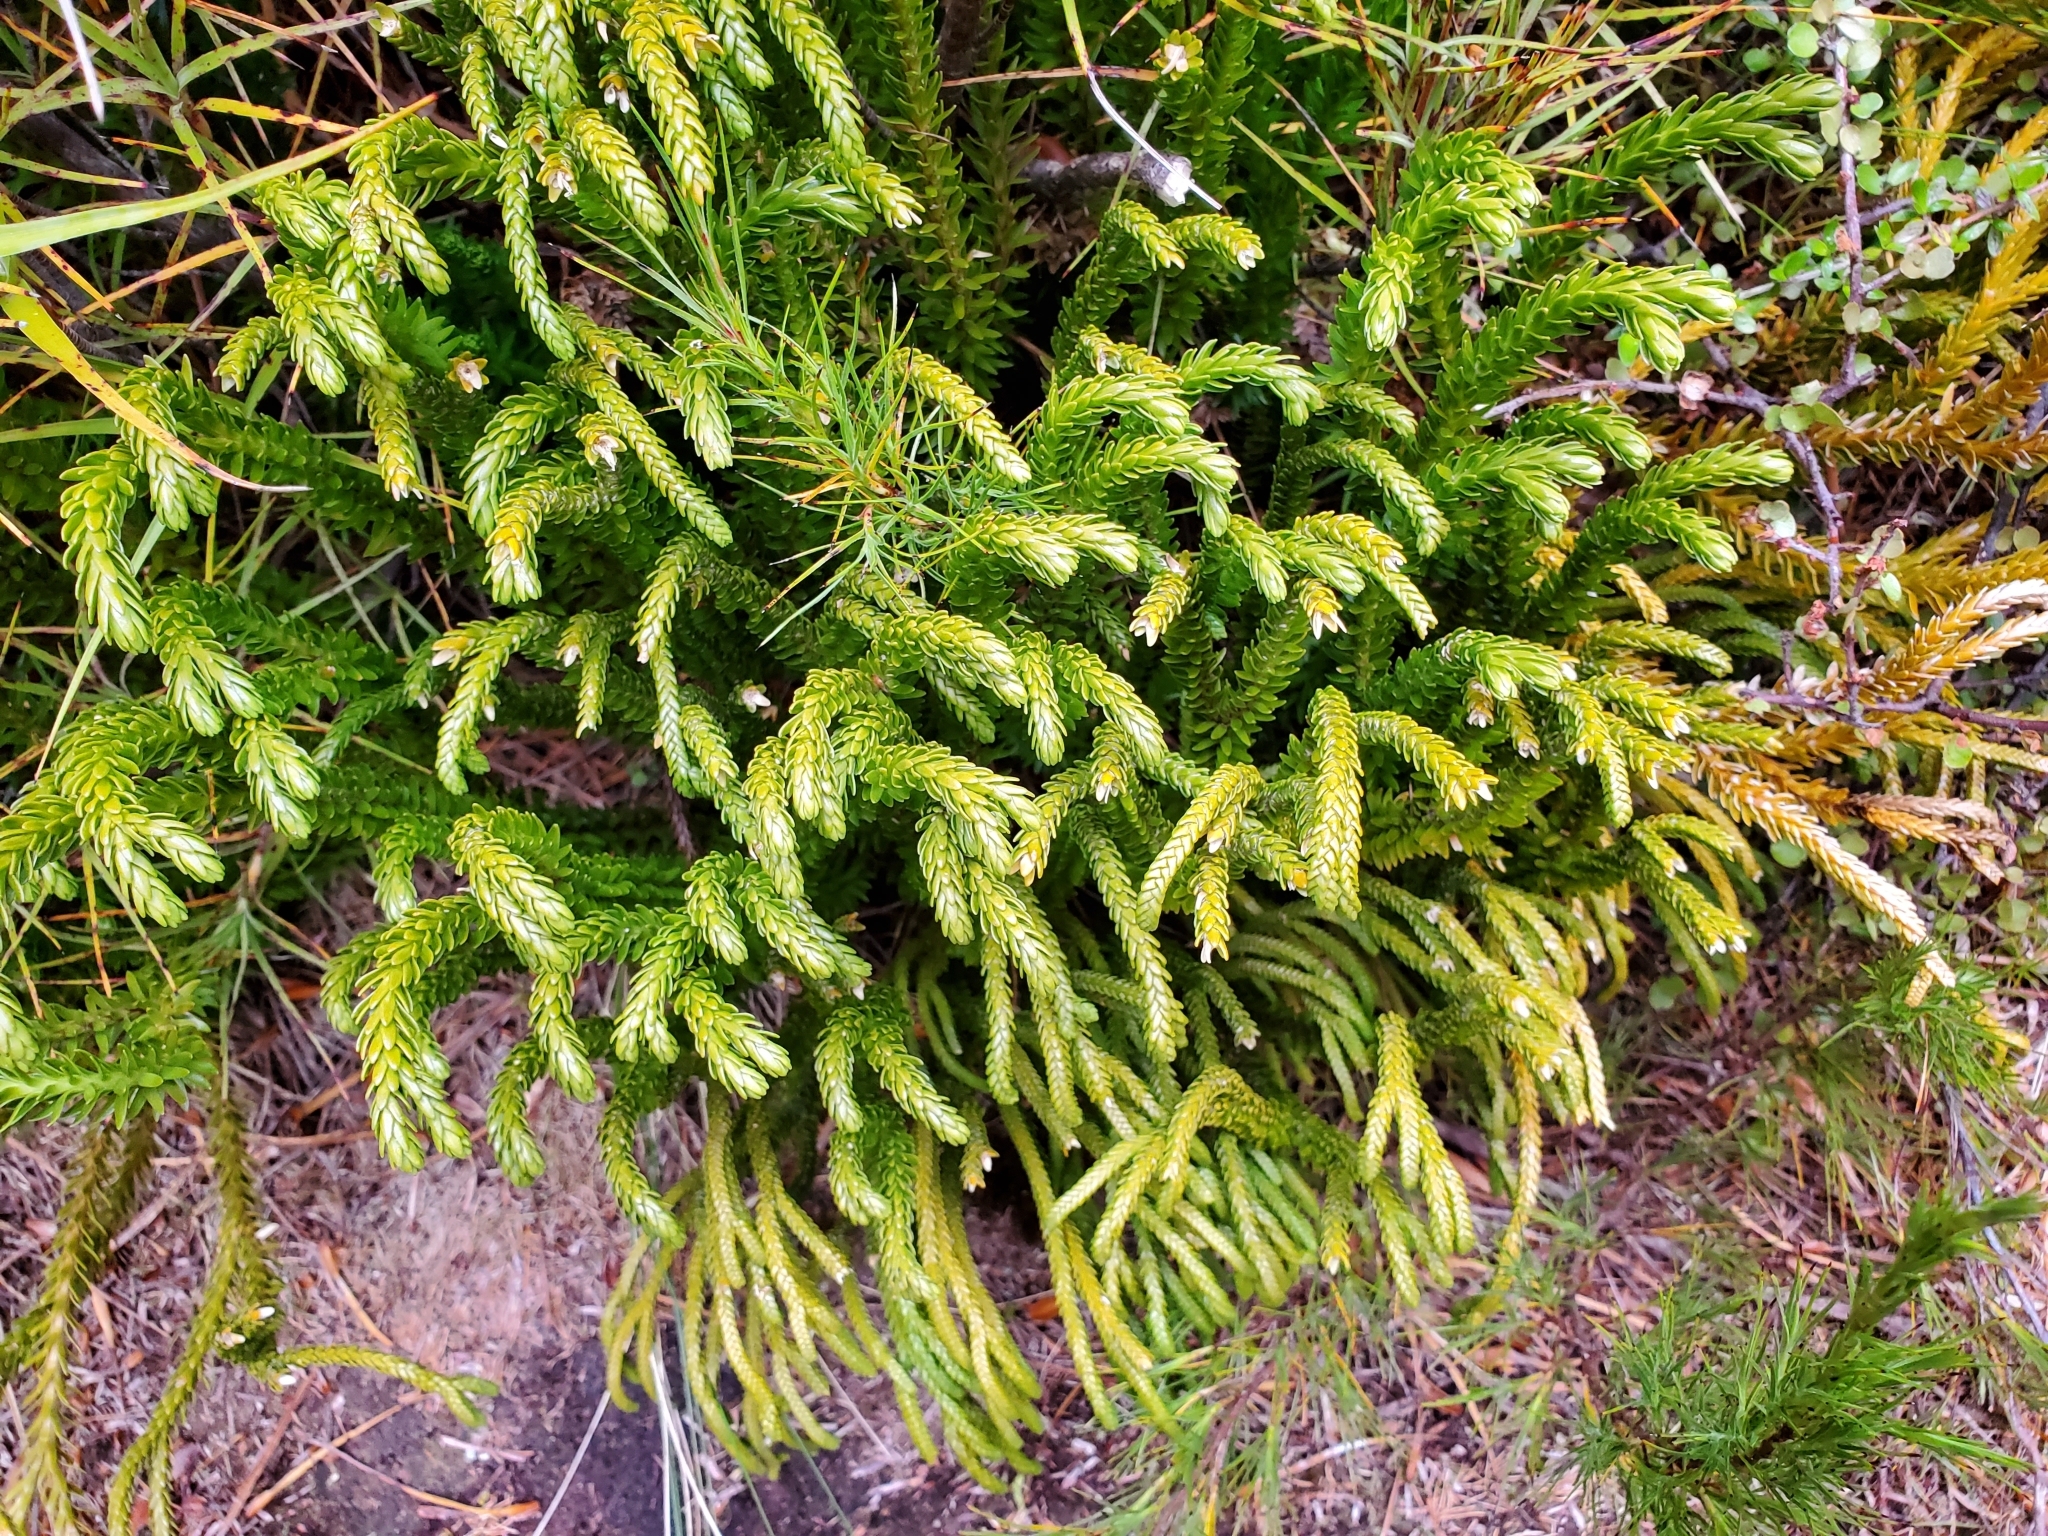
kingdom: Plantae
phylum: Tracheophyta
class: Lycopodiopsida
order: Lycopodiales
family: Lycopodiaceae
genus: Phlegmariurus
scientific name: Phlegmariurus varius
